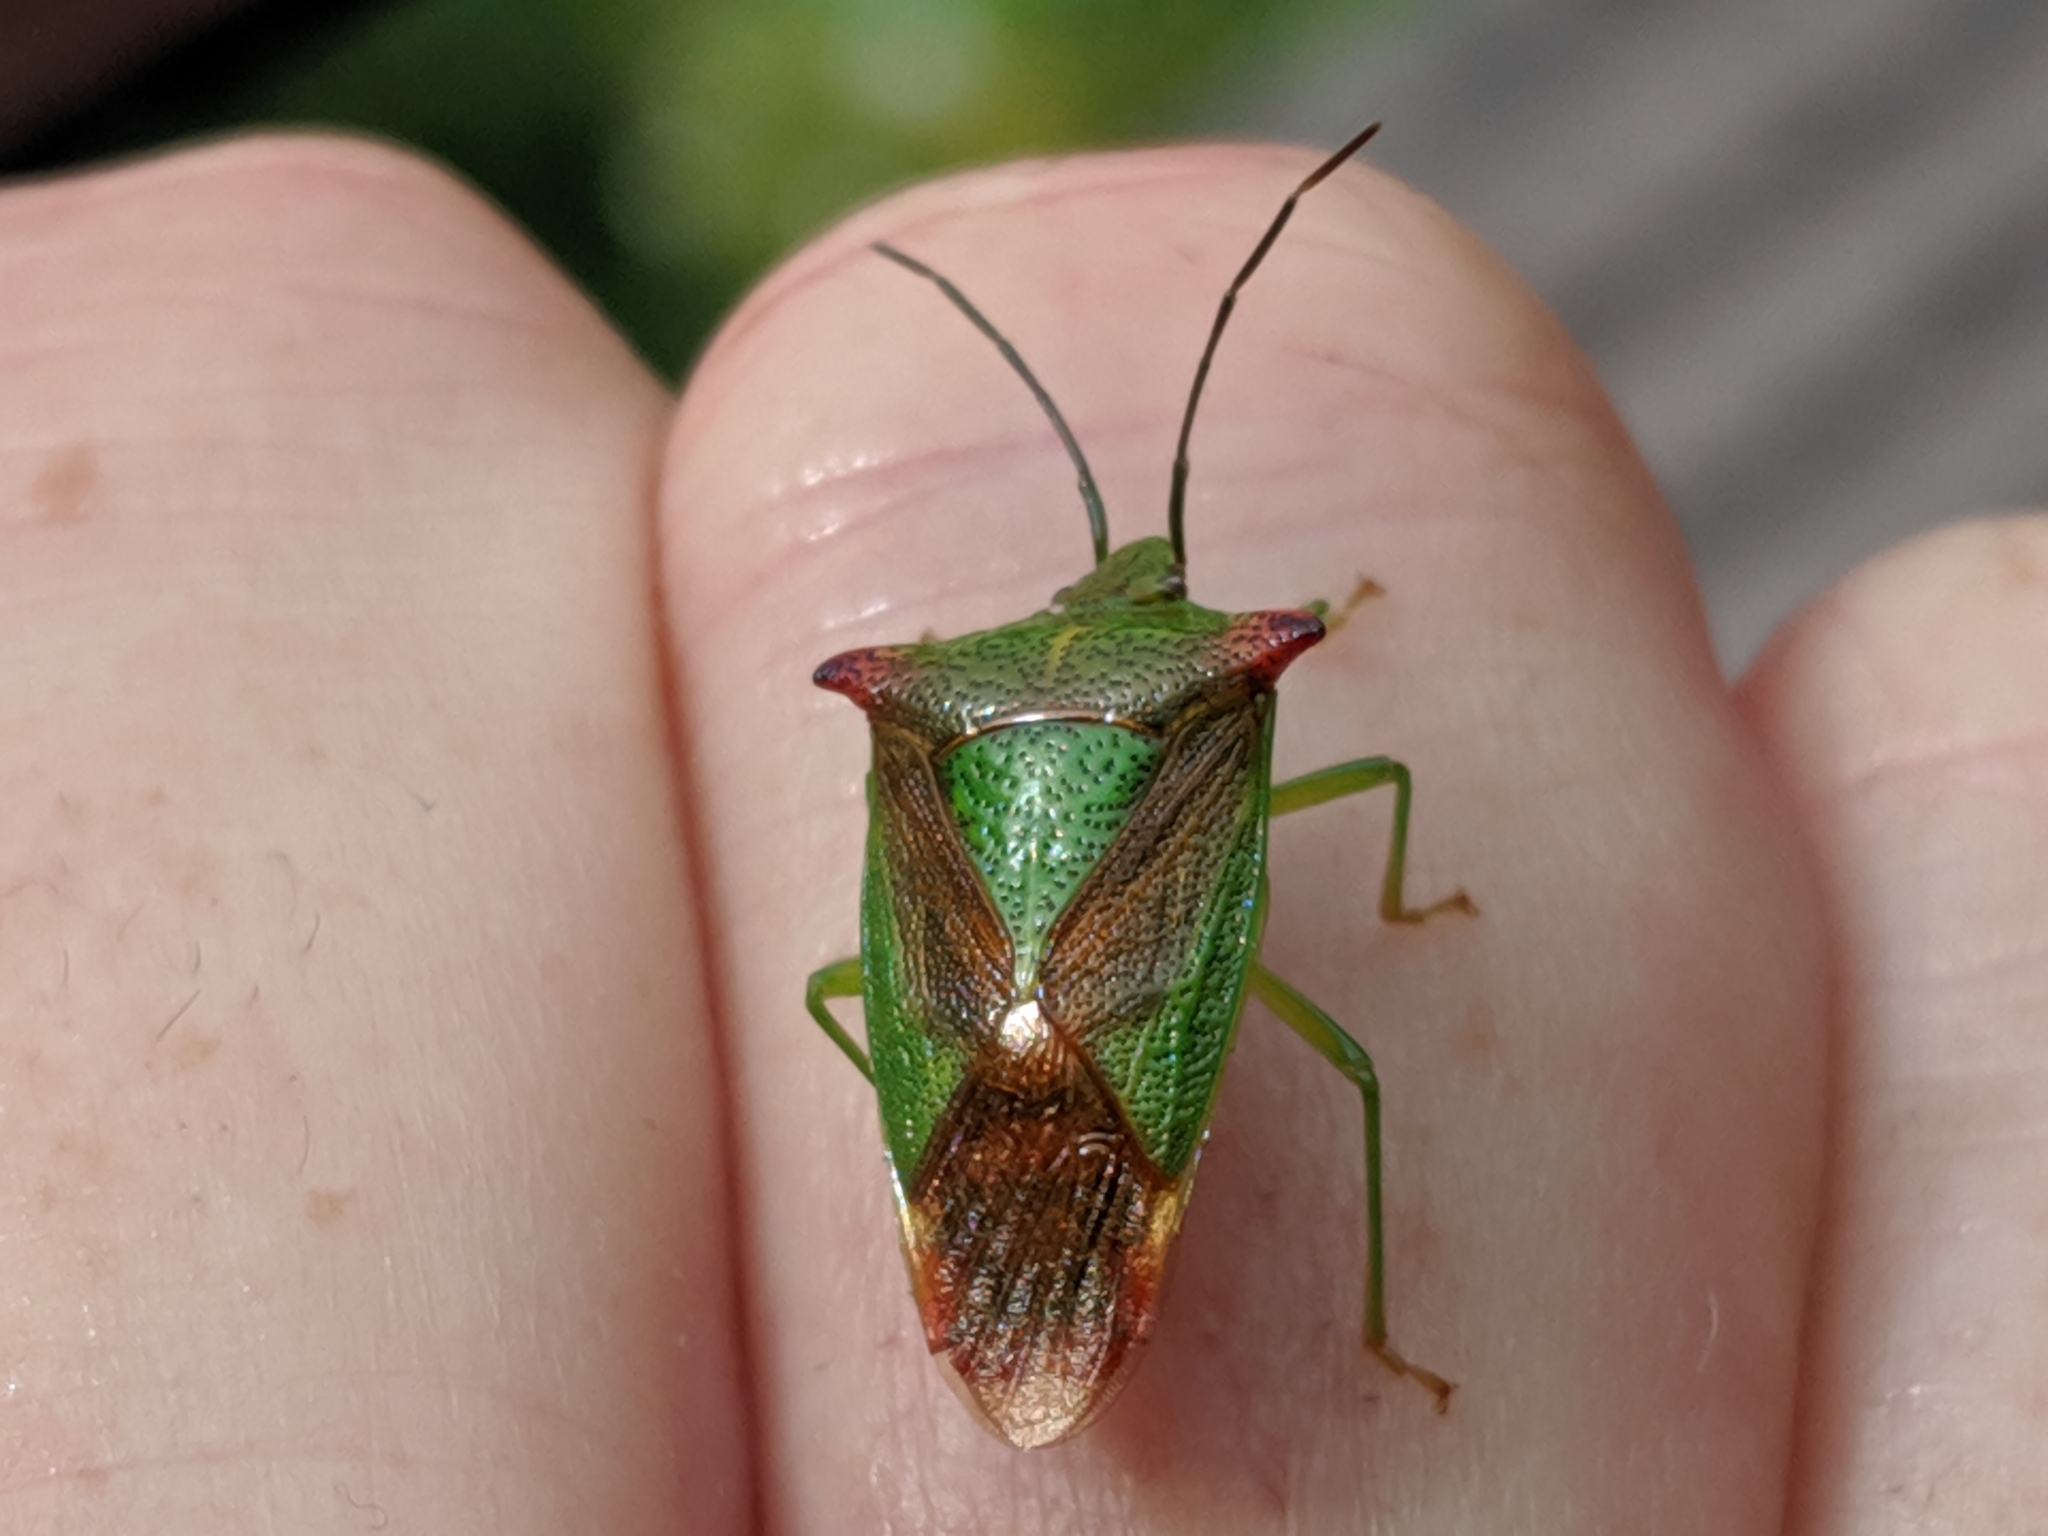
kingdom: Animalia
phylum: Arthropoda
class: Insecta
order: Hemiptera
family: Acanthosomatidae
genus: Acanthosoma
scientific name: Acanthosoma haemorrhoidale
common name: Hawthorn shieldbug
